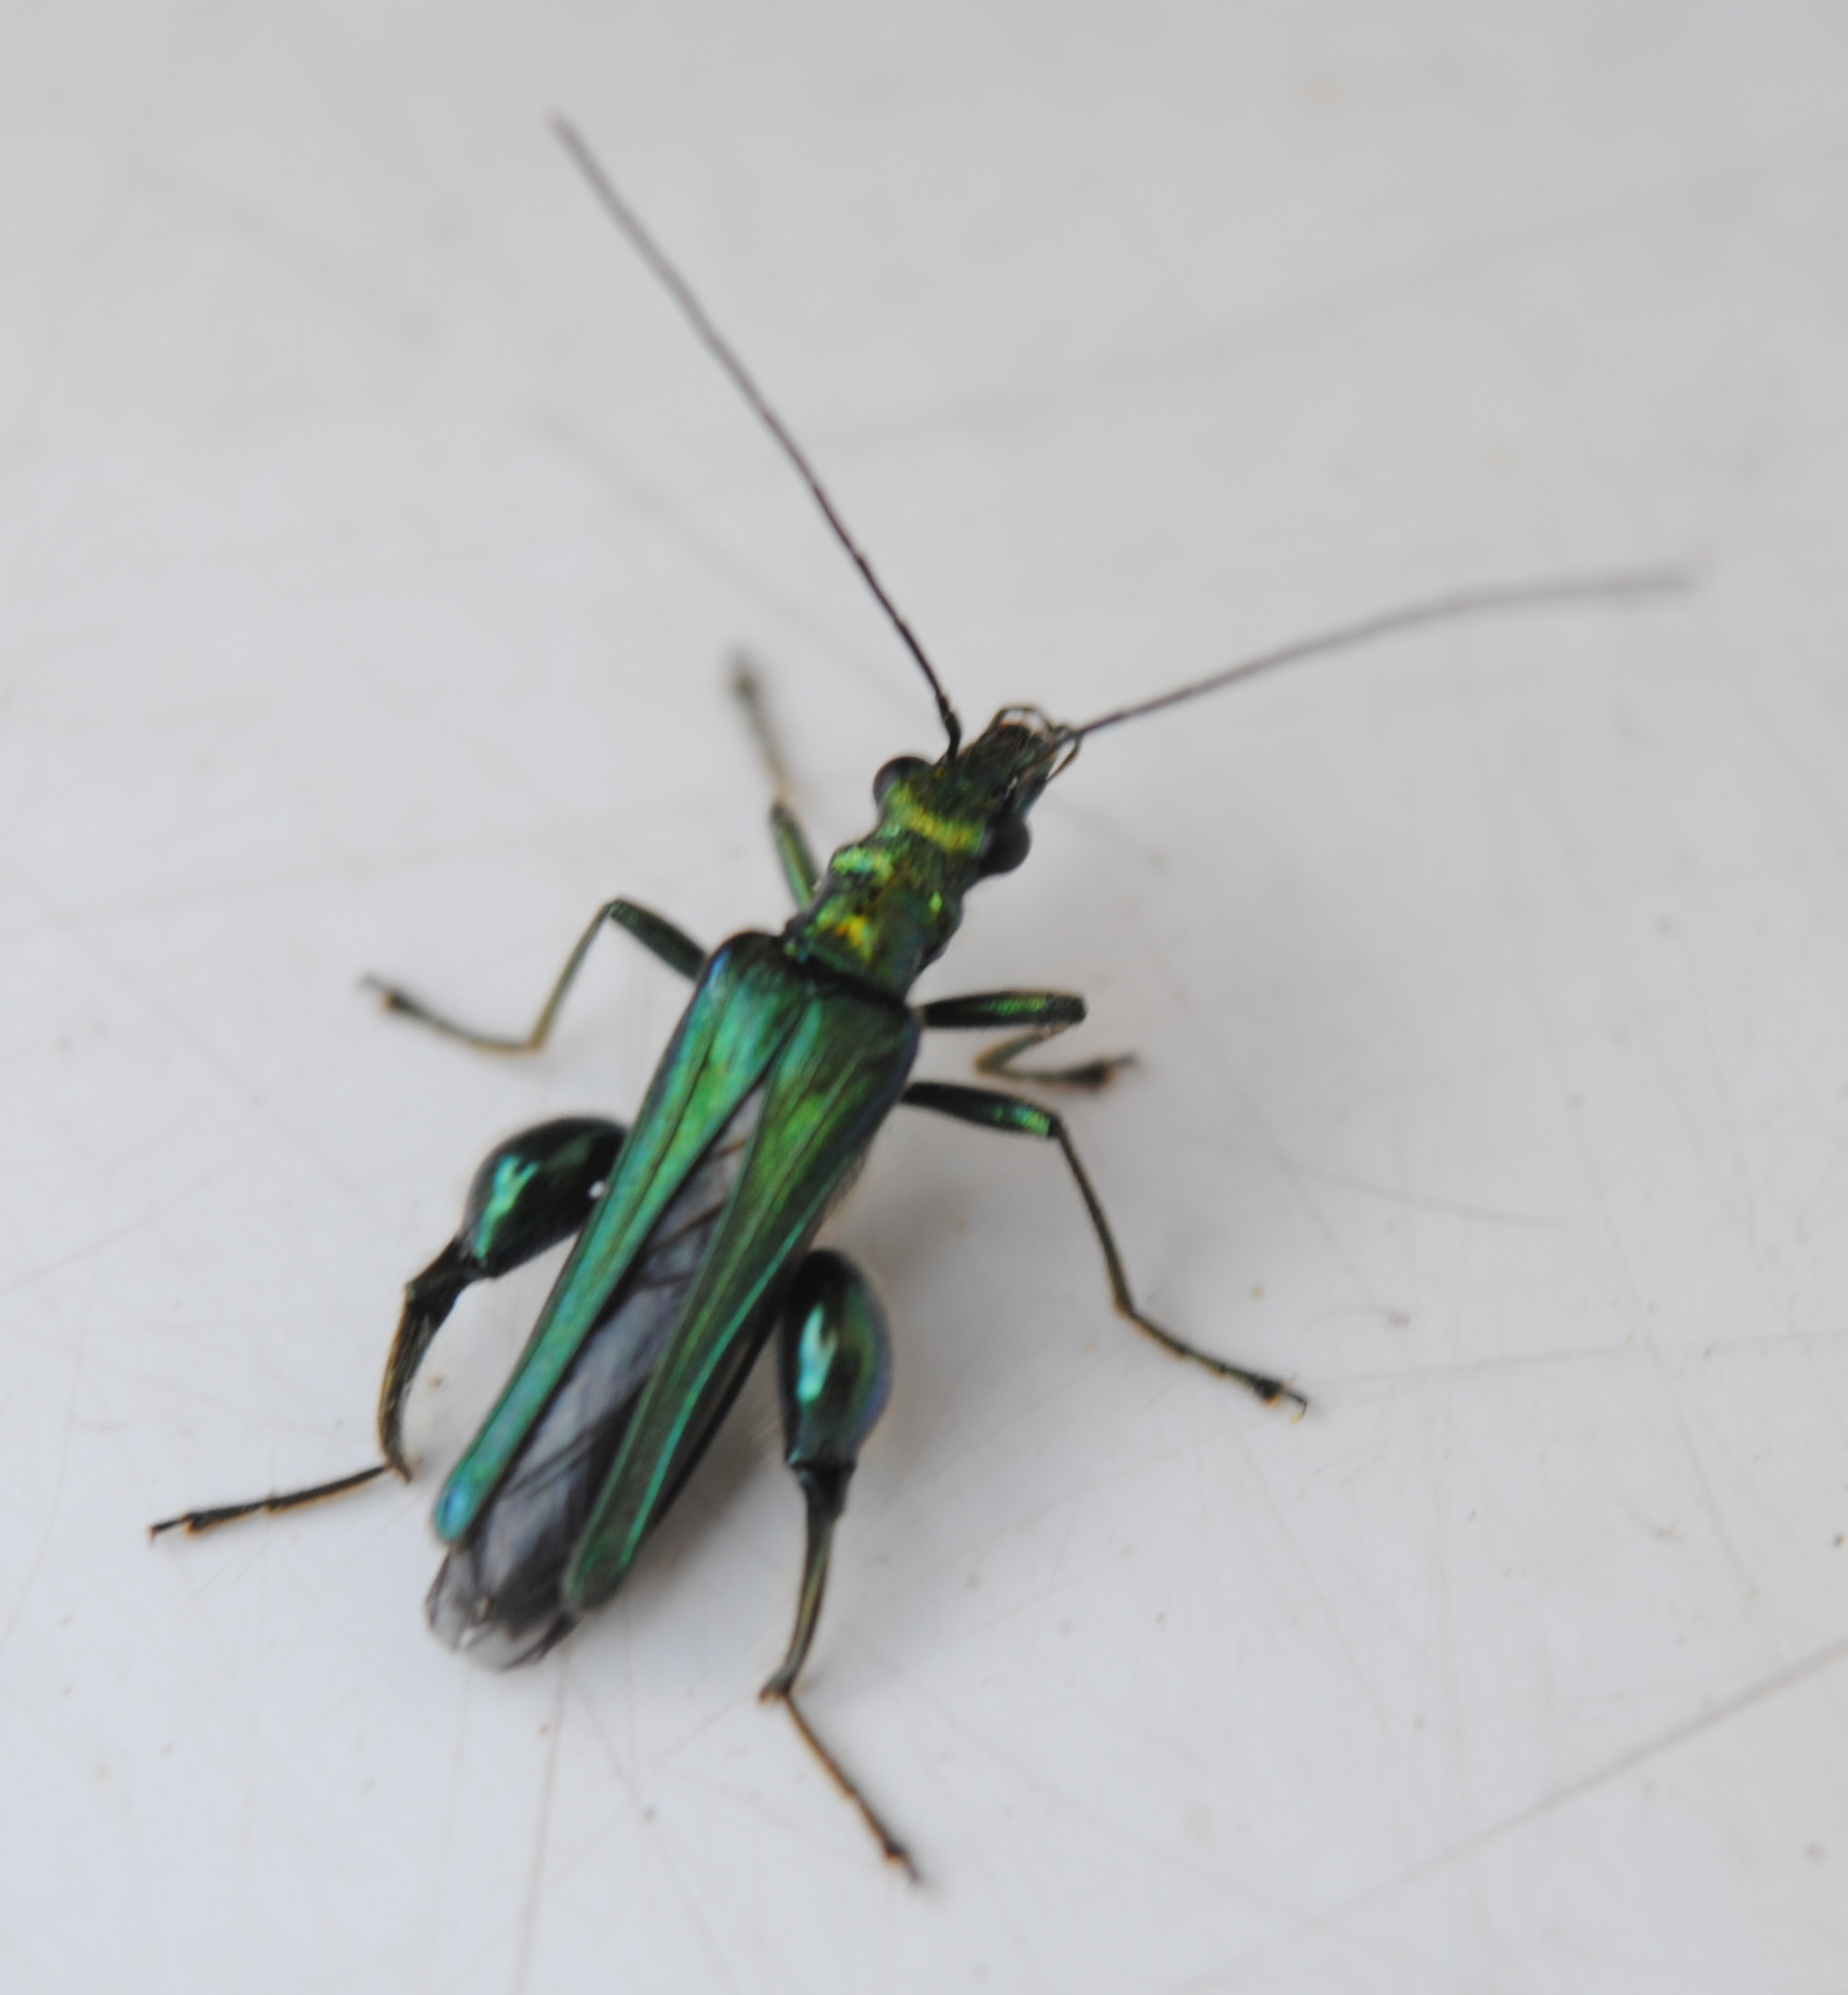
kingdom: Animalia
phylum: Arthropoda
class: Insecta
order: Coleoptera
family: Oedemeridae
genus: Oedemera
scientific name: Oedemera nobilis
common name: Swollen-thighed beetle
